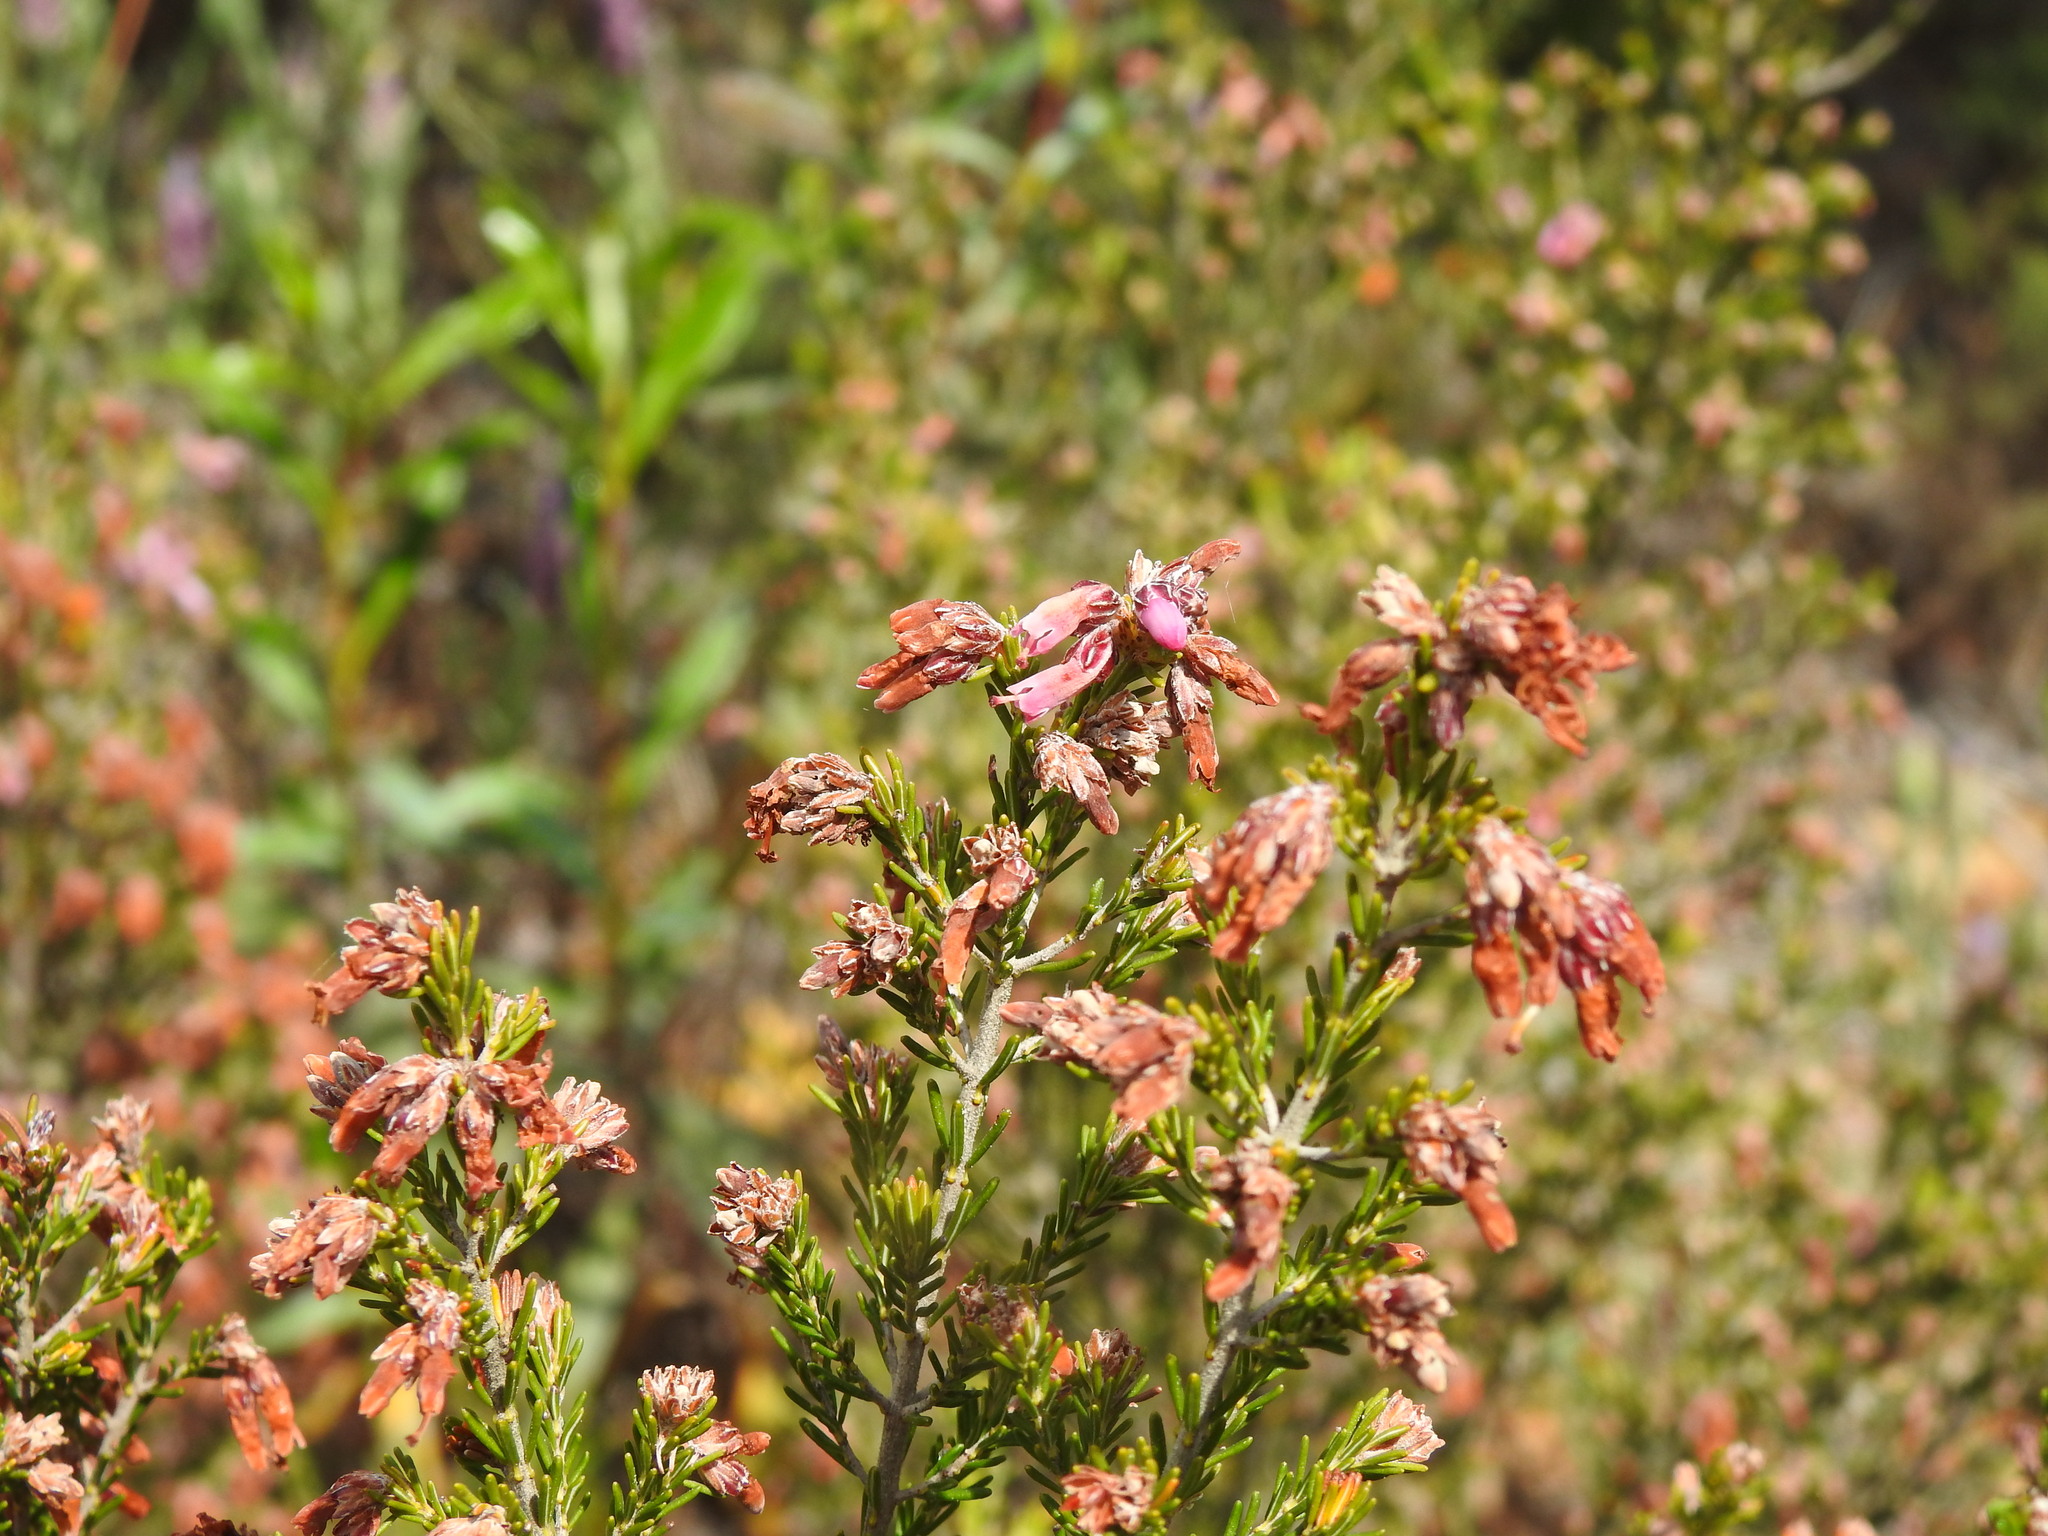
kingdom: Plantae
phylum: Tracheophyta
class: Magnoliopsida
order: Ericales
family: Ericaceae
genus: Erica
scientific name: Erica australis
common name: Spanish heath
